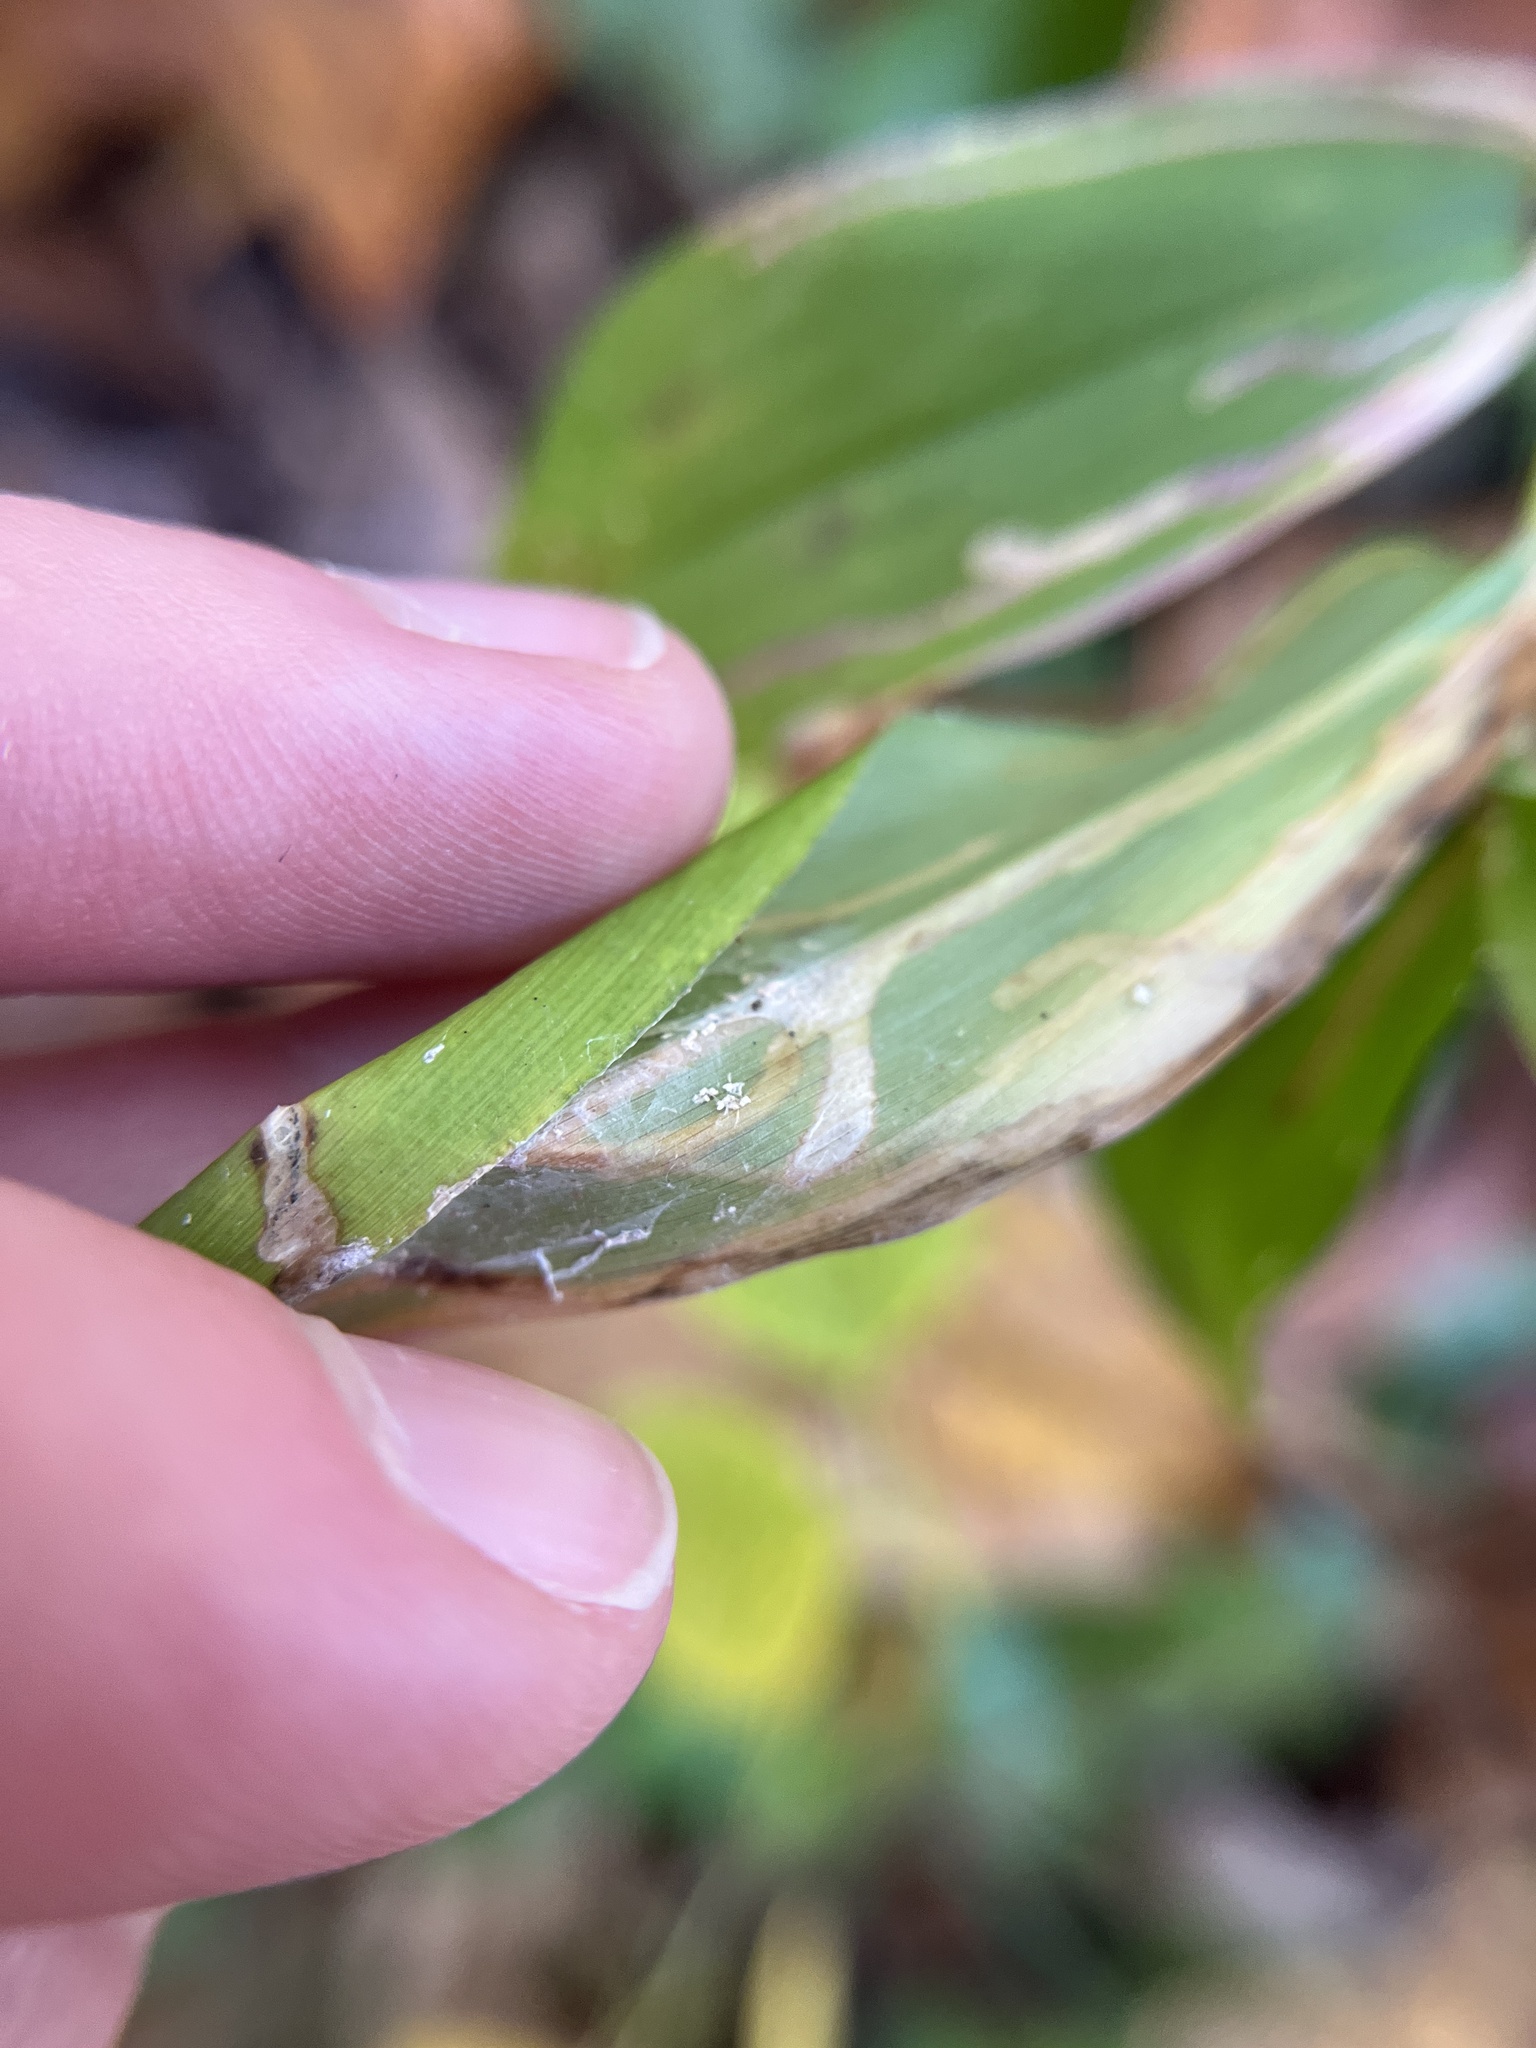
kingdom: Animalia
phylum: Arthropoda
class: Insecta
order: Diptera
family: Agromyzidae
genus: Cerodontha
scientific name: Cerodontha dorsalis
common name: Grass sheathminer fly
